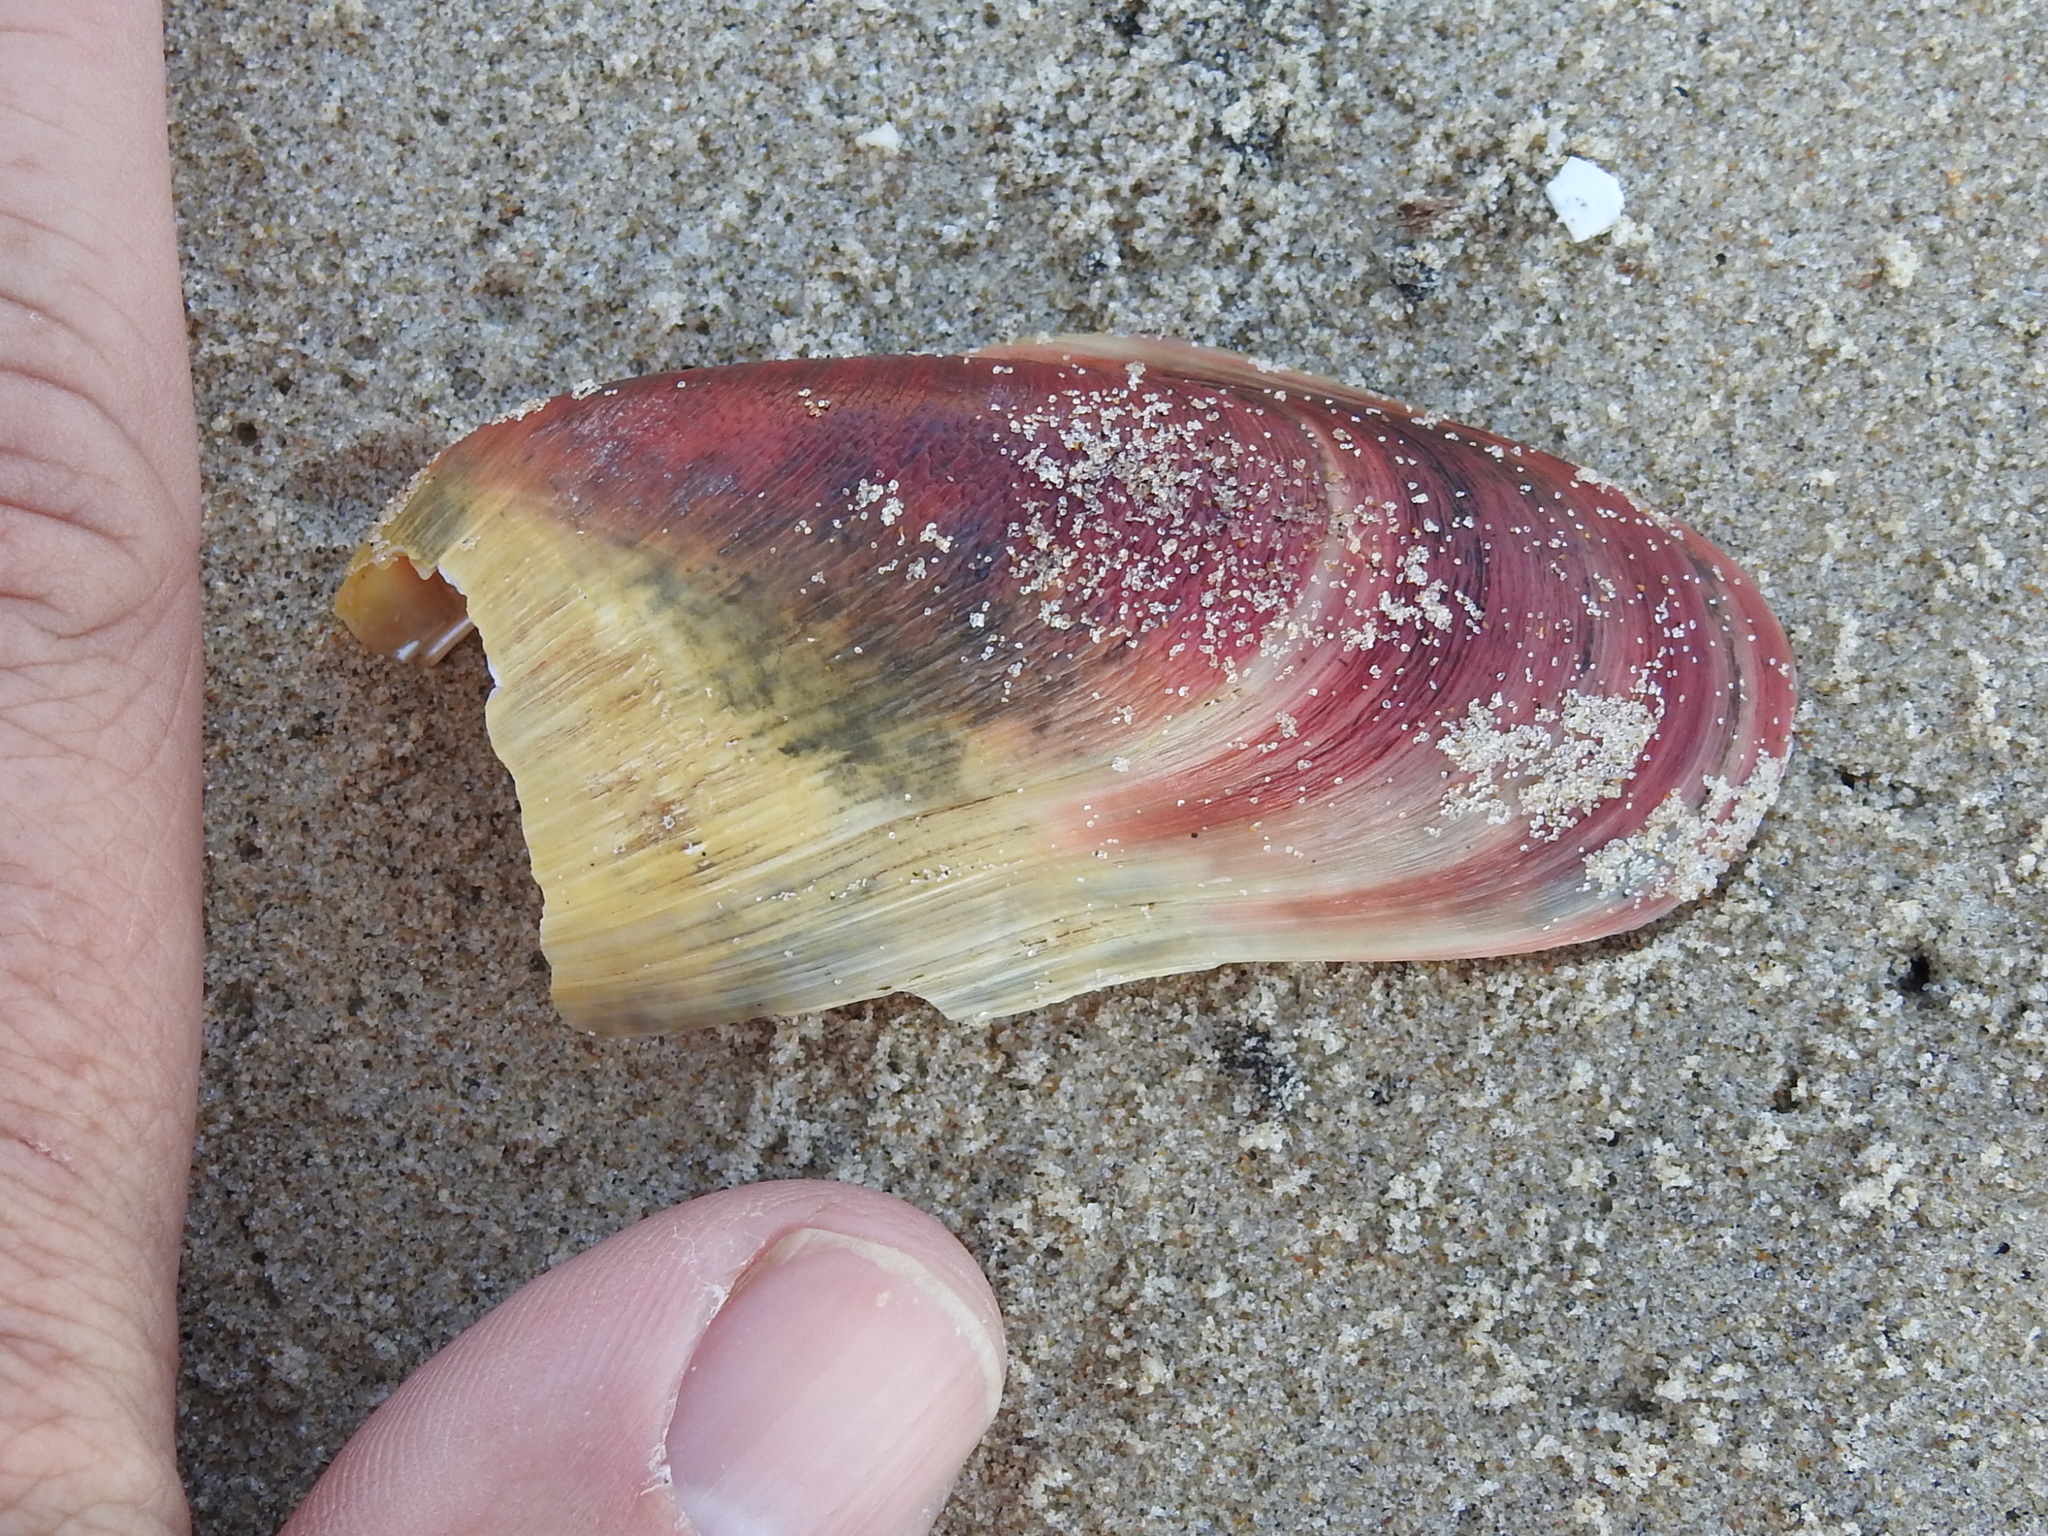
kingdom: Animalia
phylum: Mollusca
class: Bivalvia
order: Mytilida
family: Mytilidae
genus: Modiolus
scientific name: Modiolus americanus
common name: Tulip mussel
